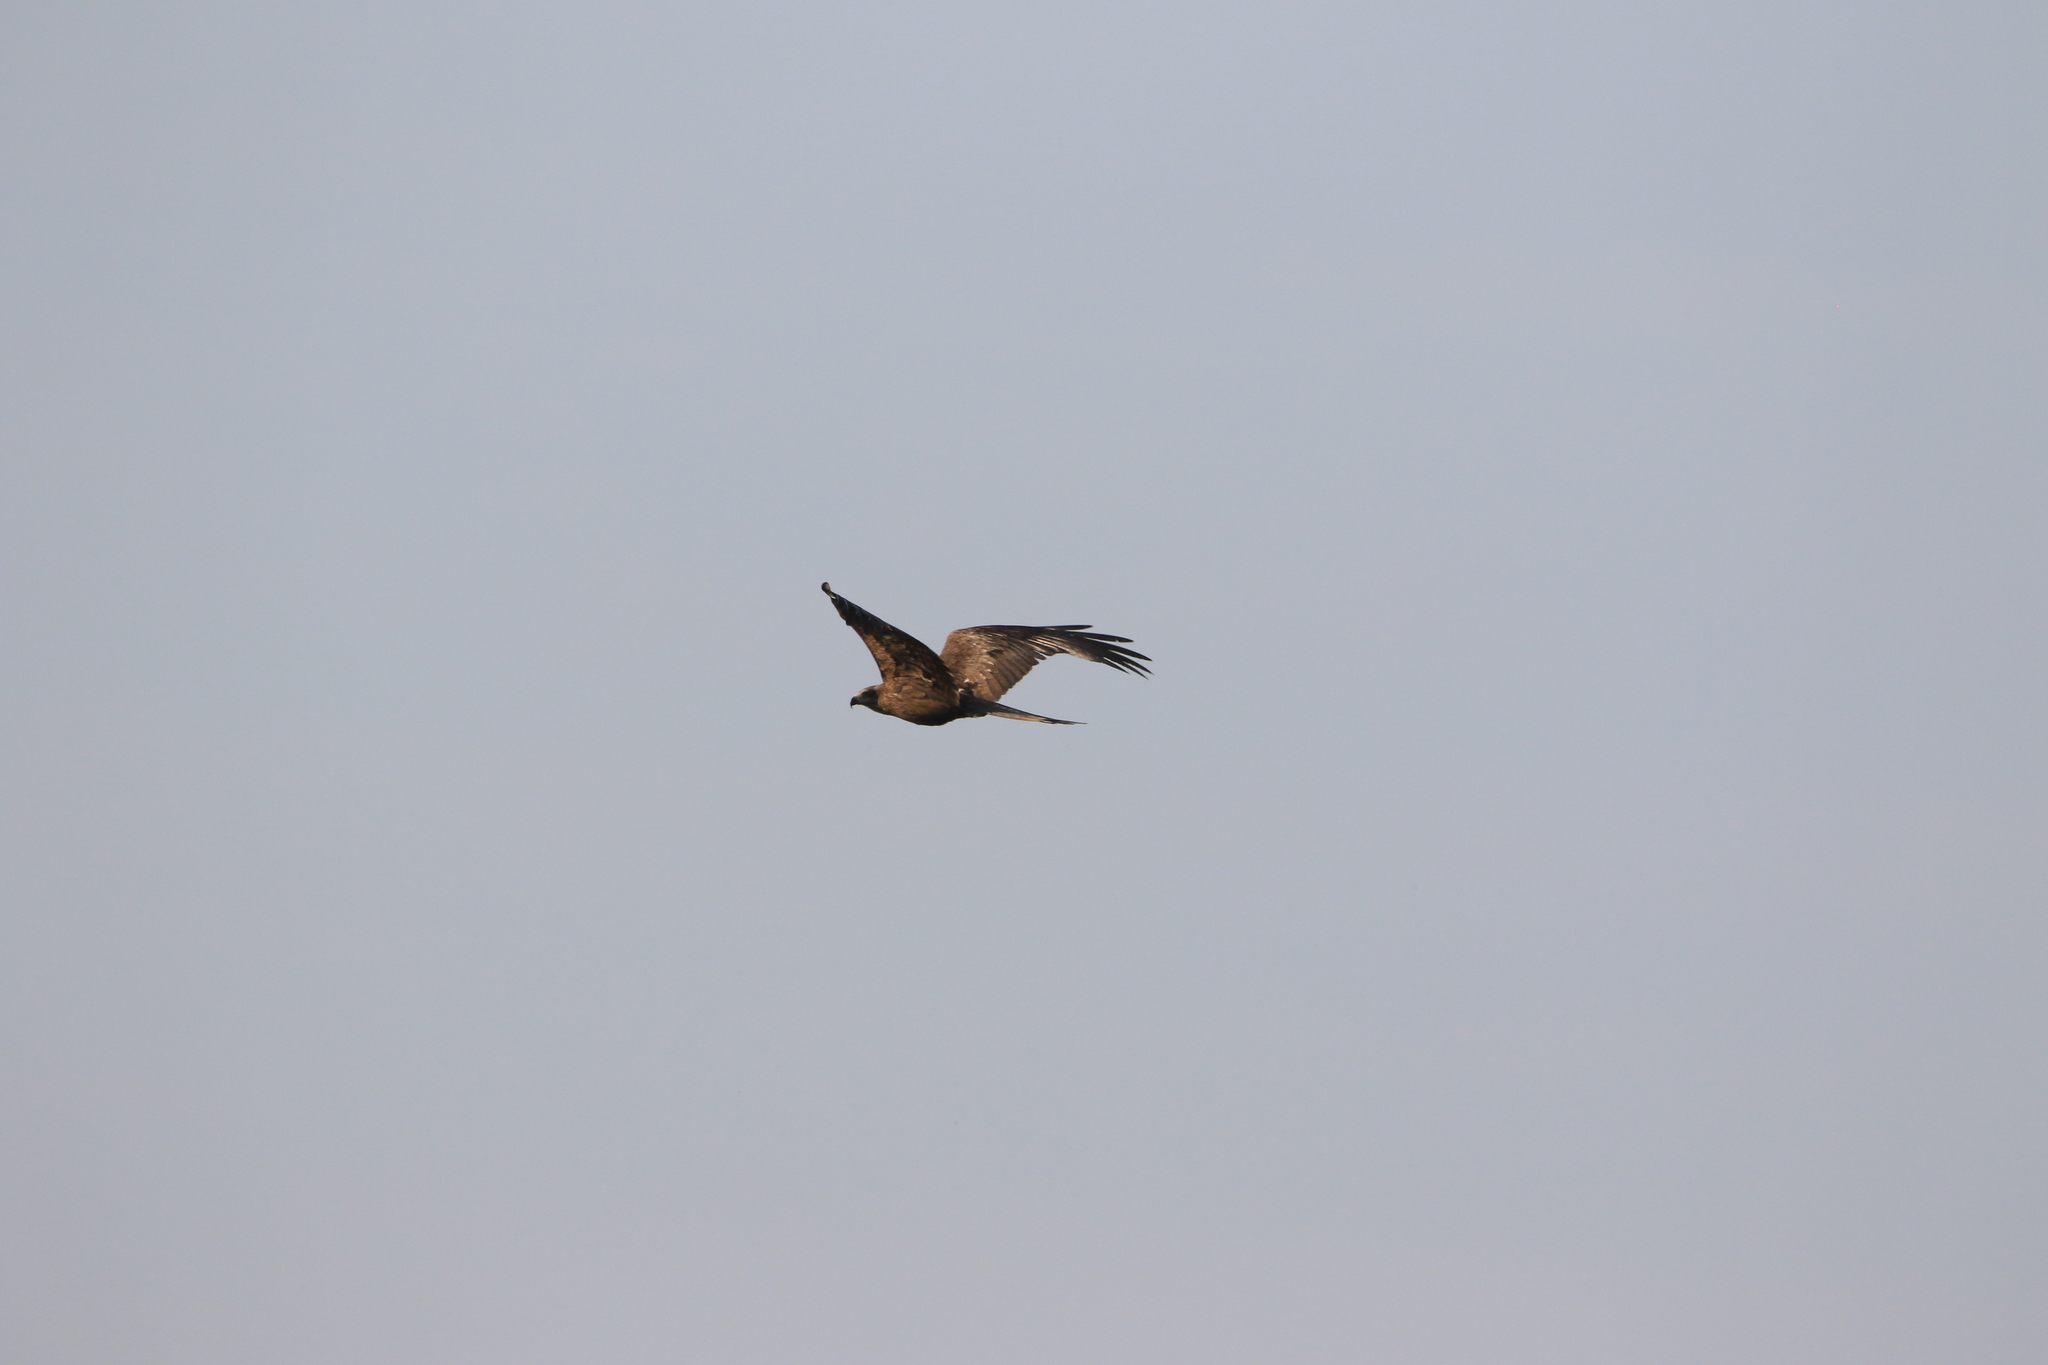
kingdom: Animalia
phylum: Chordata
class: Aves
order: Accipitriformes
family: Accipitridae
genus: Milvus
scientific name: Milvus migrans
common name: Black kite
